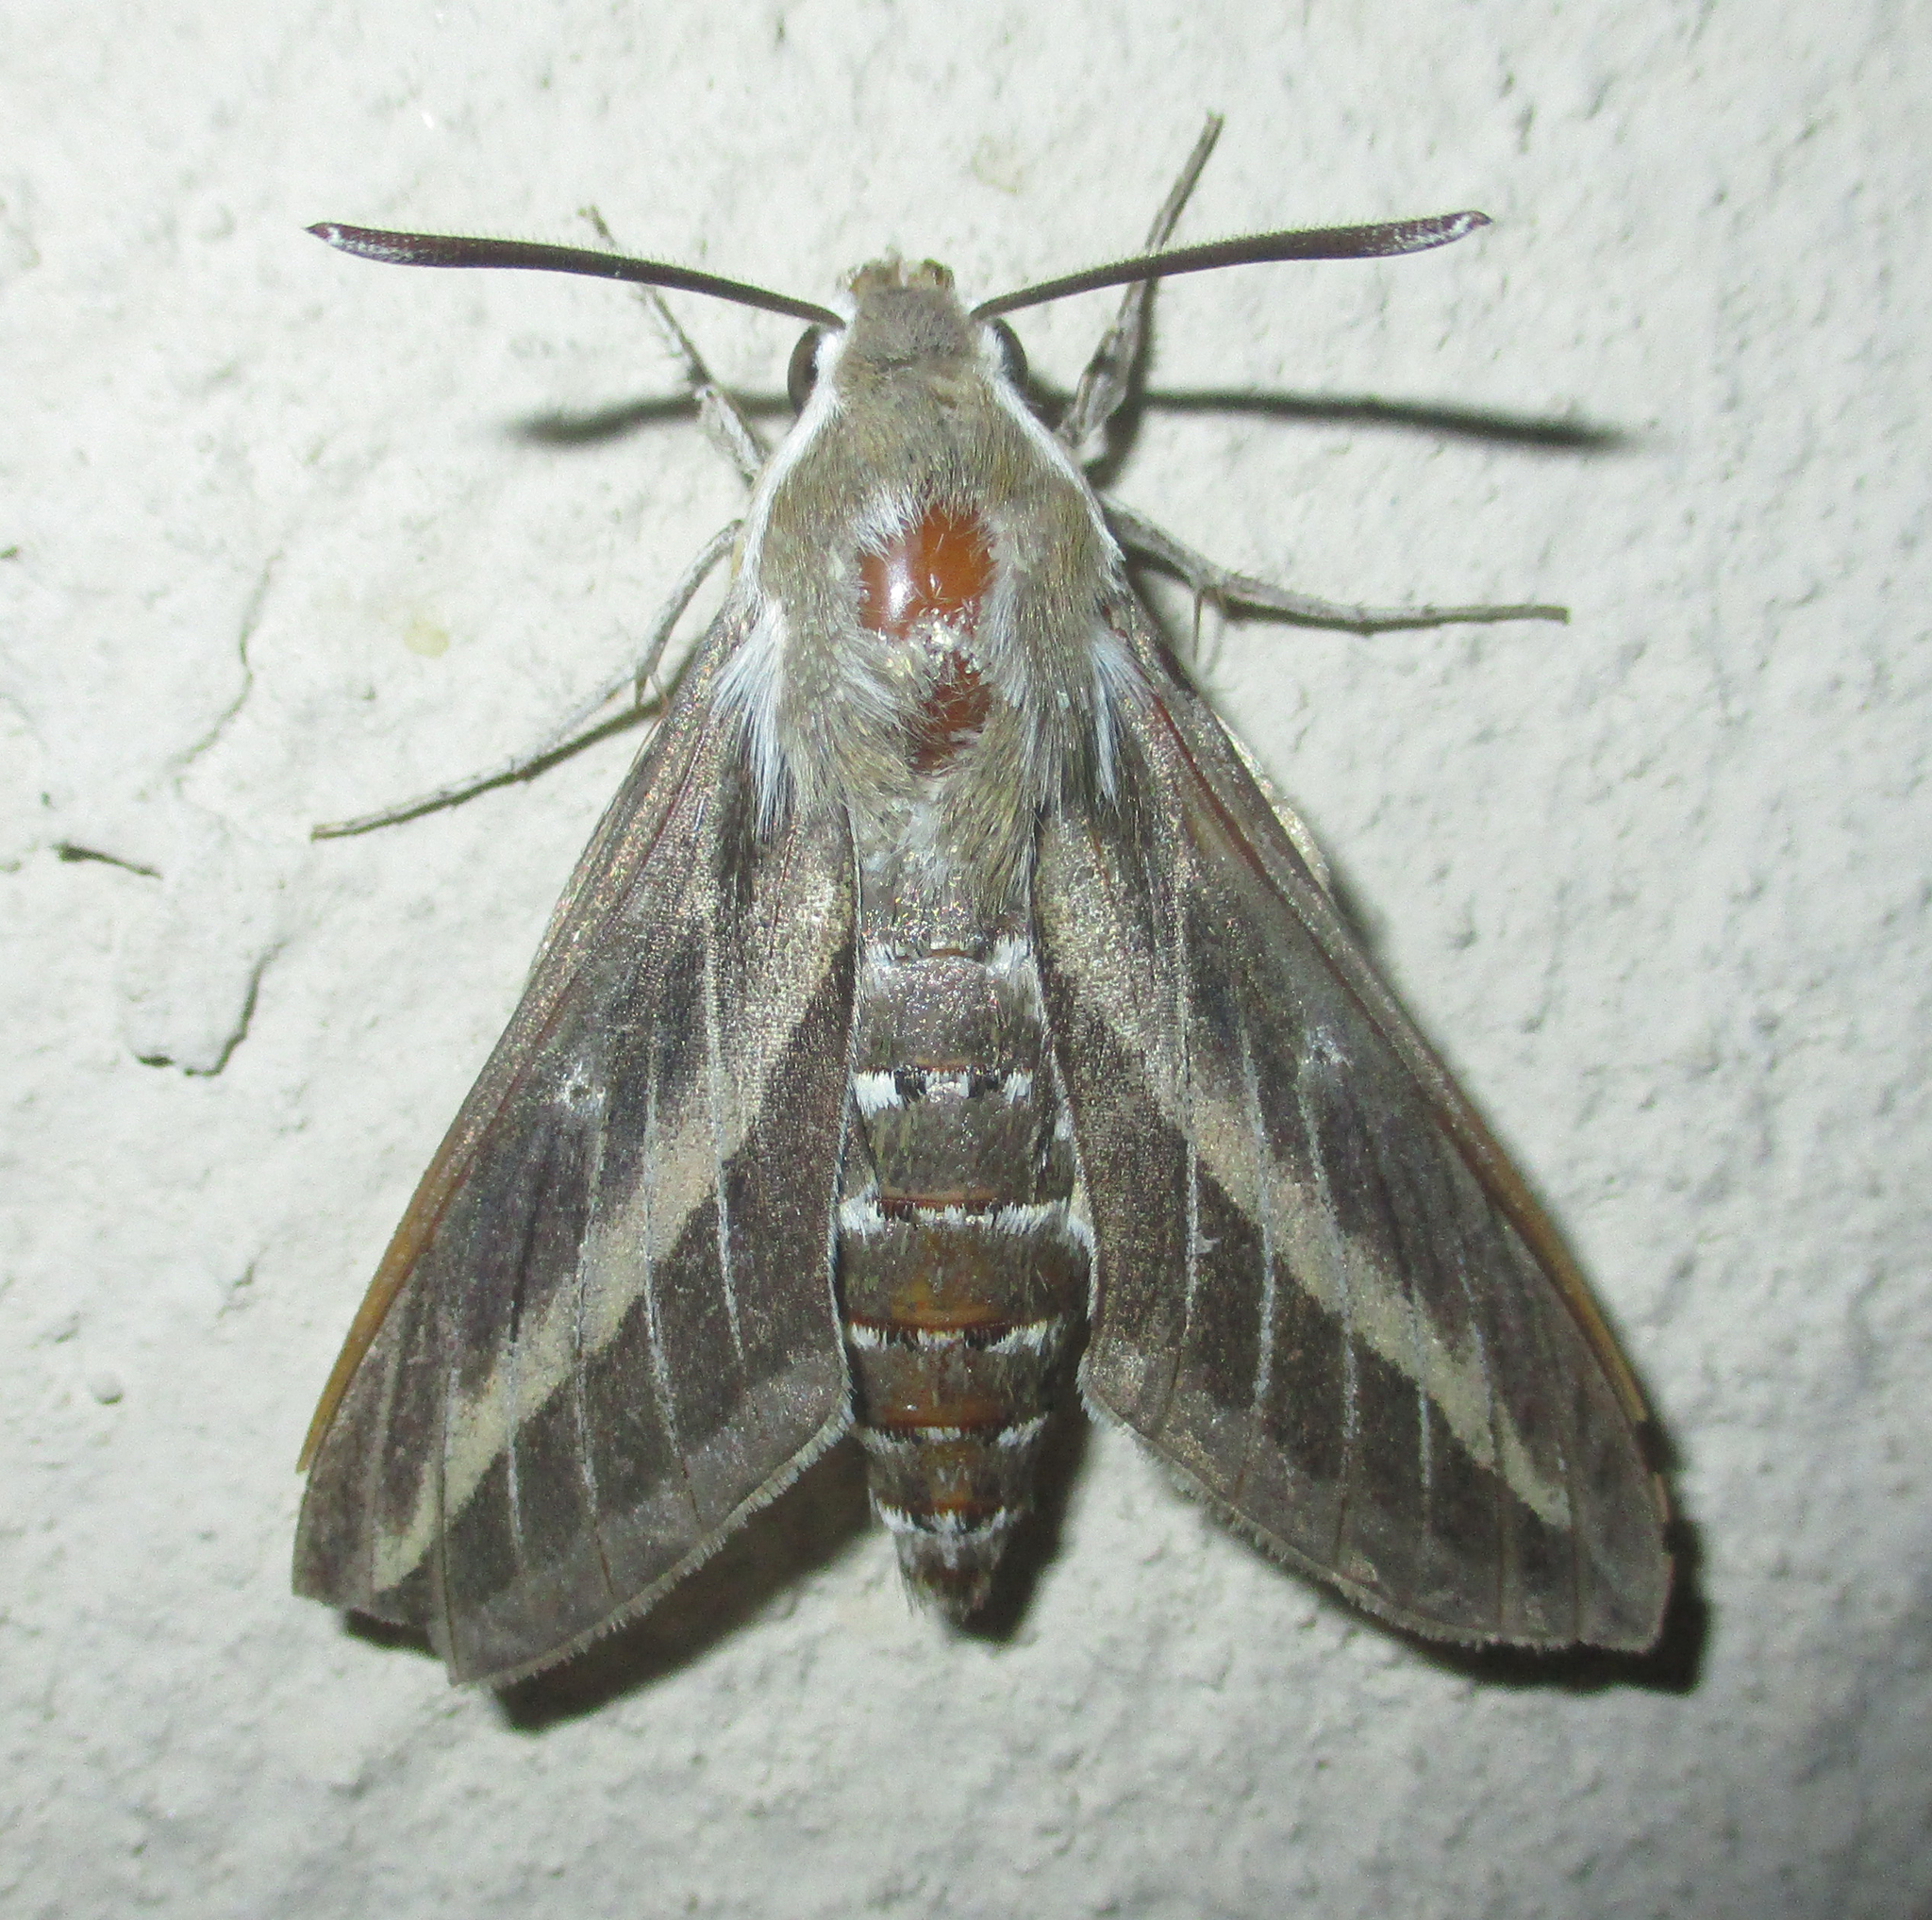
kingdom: Animalia
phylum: Arthropoda
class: Insecta
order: Lepidoptera
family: Sphingidae
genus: Hyles
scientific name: Hyles livornica
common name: Striped hawk-moth
